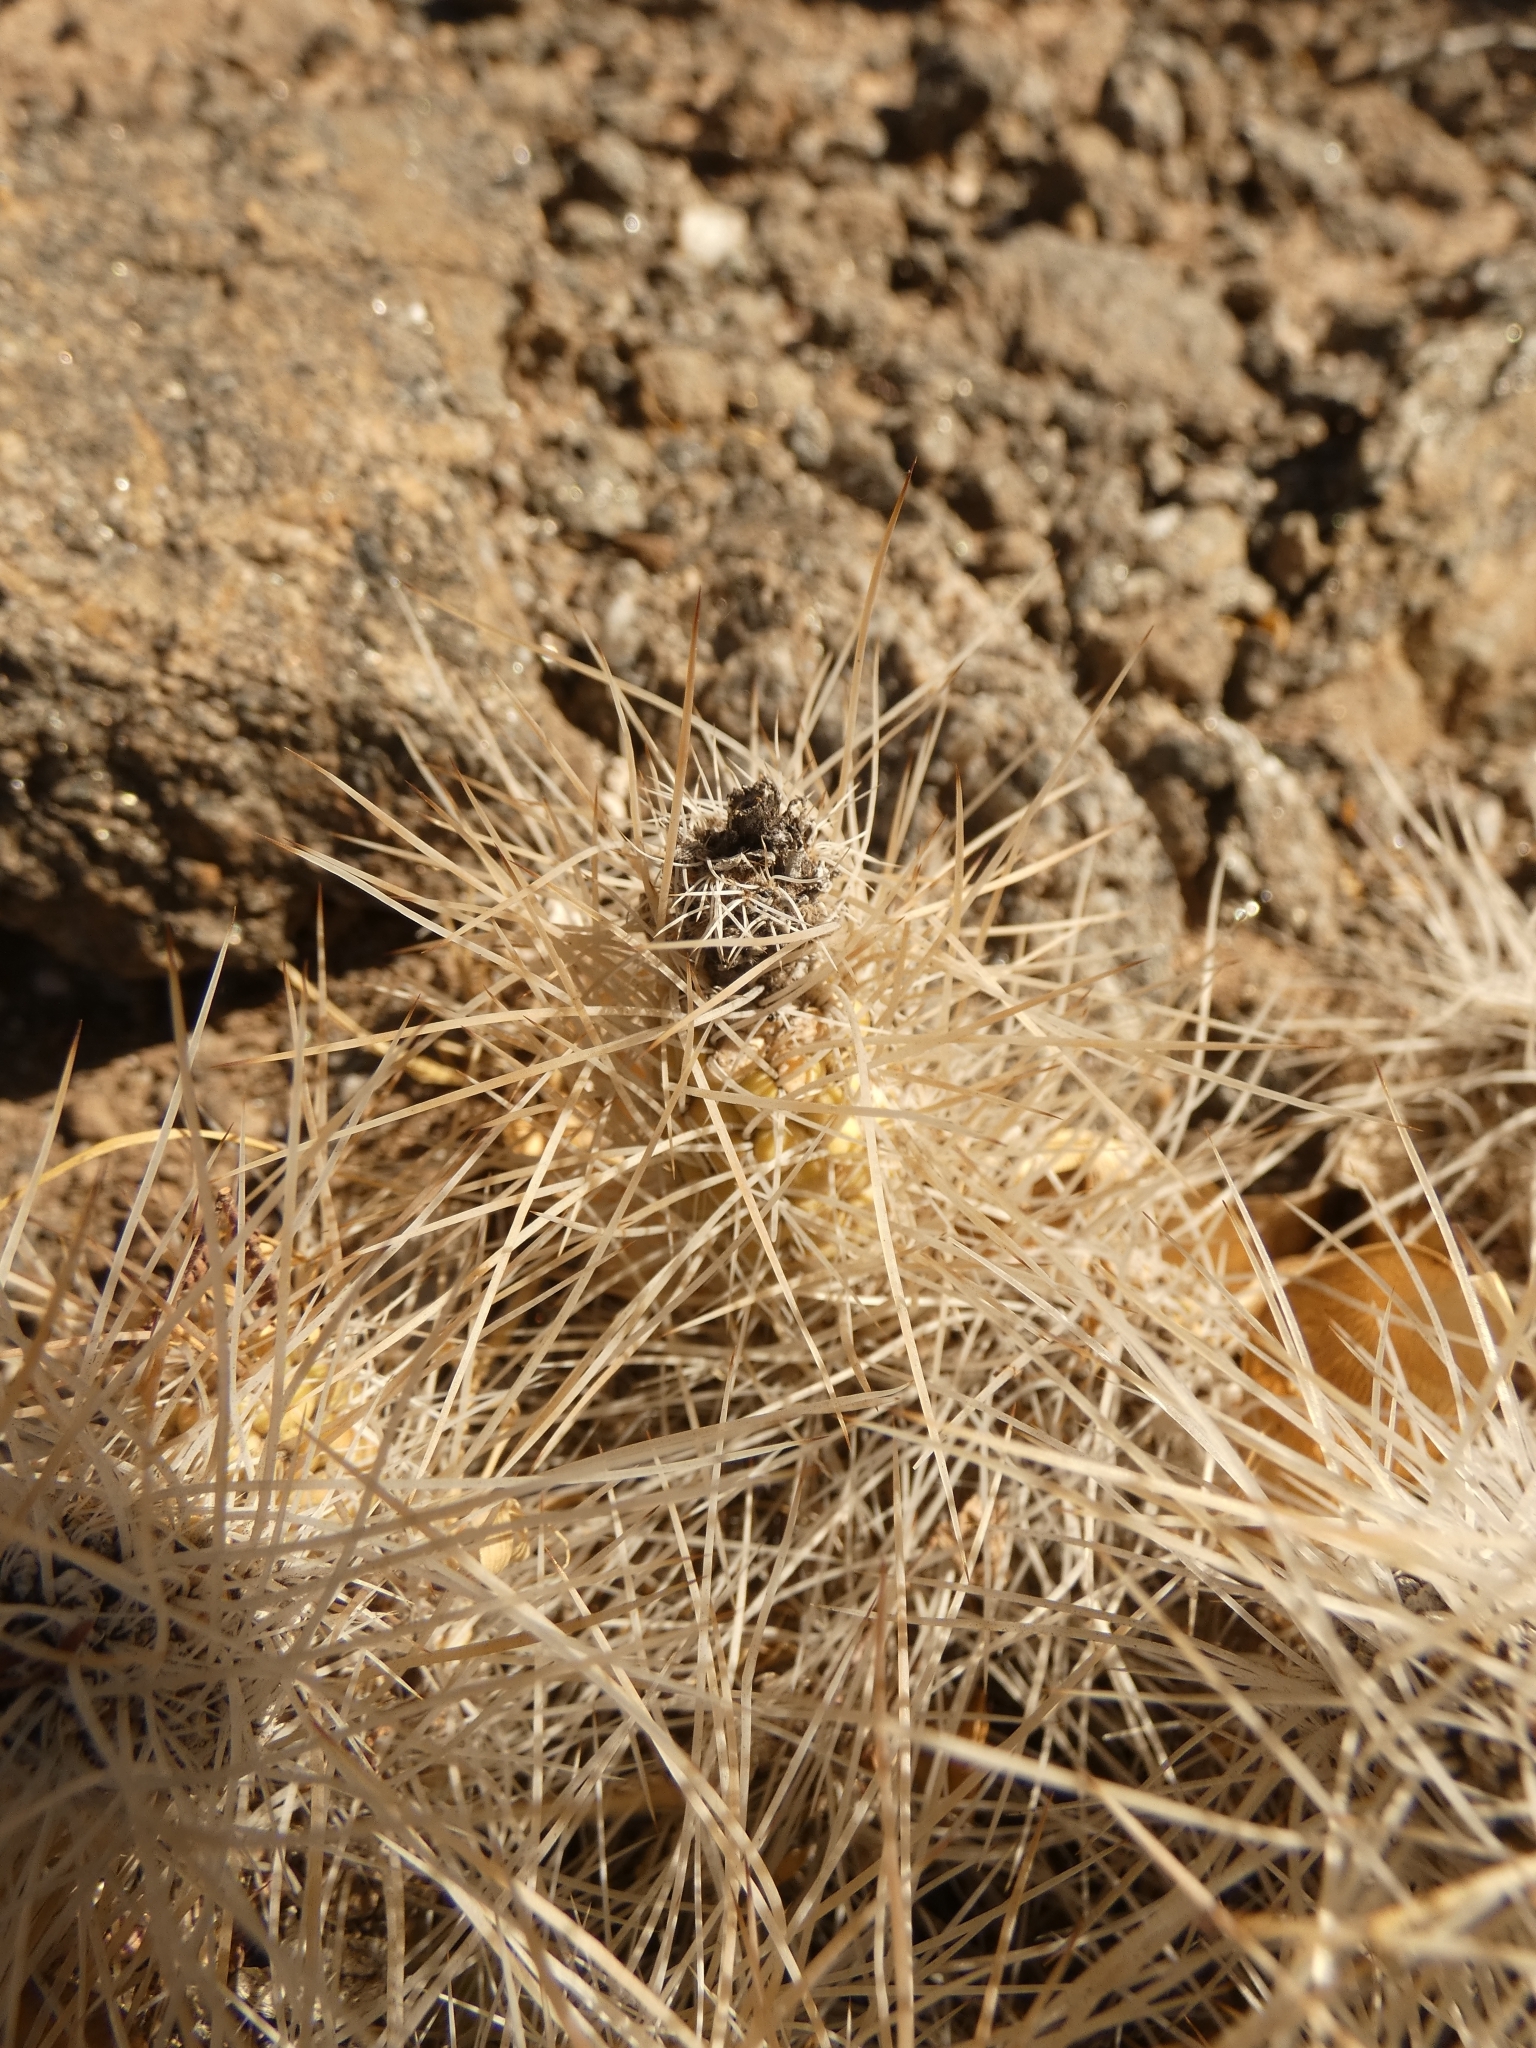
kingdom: Plantae
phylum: Tracheophyta
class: Magnoliopsida
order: Caryophyllales
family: Cactaceae
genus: Tephrocactus
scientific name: Tephrocactus weberi
